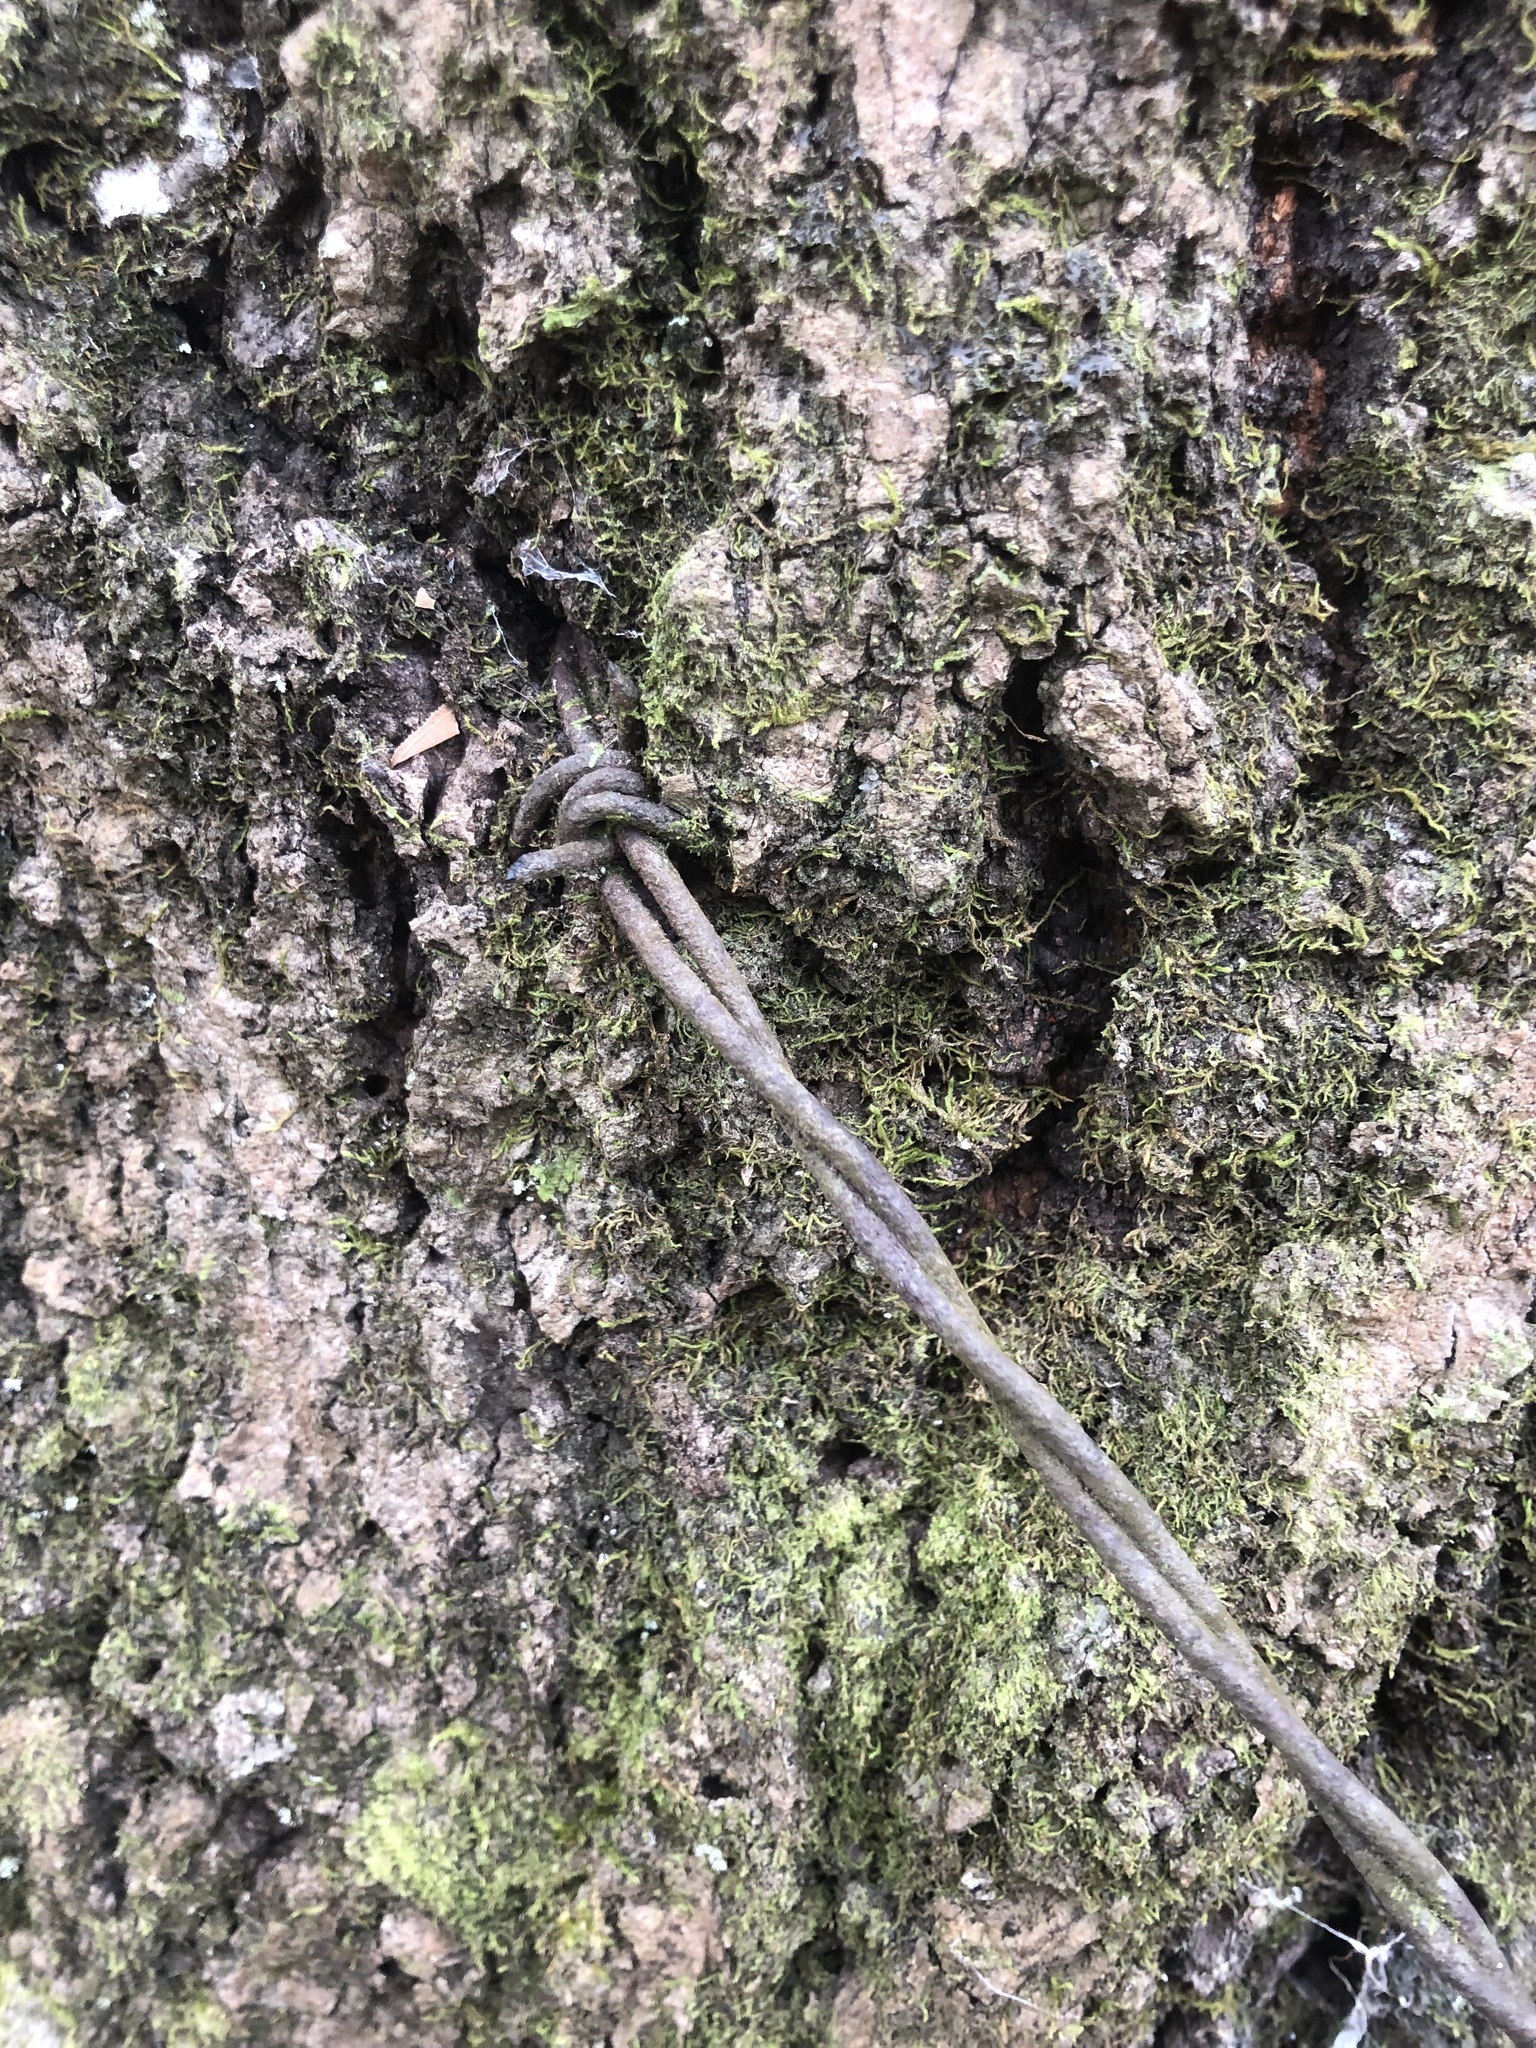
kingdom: Plantae
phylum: Tracheophyta
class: Magnoliopsida
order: Fagales
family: Fagaceae
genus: Quercus
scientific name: Quercus coccinea
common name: Scarlet oak
